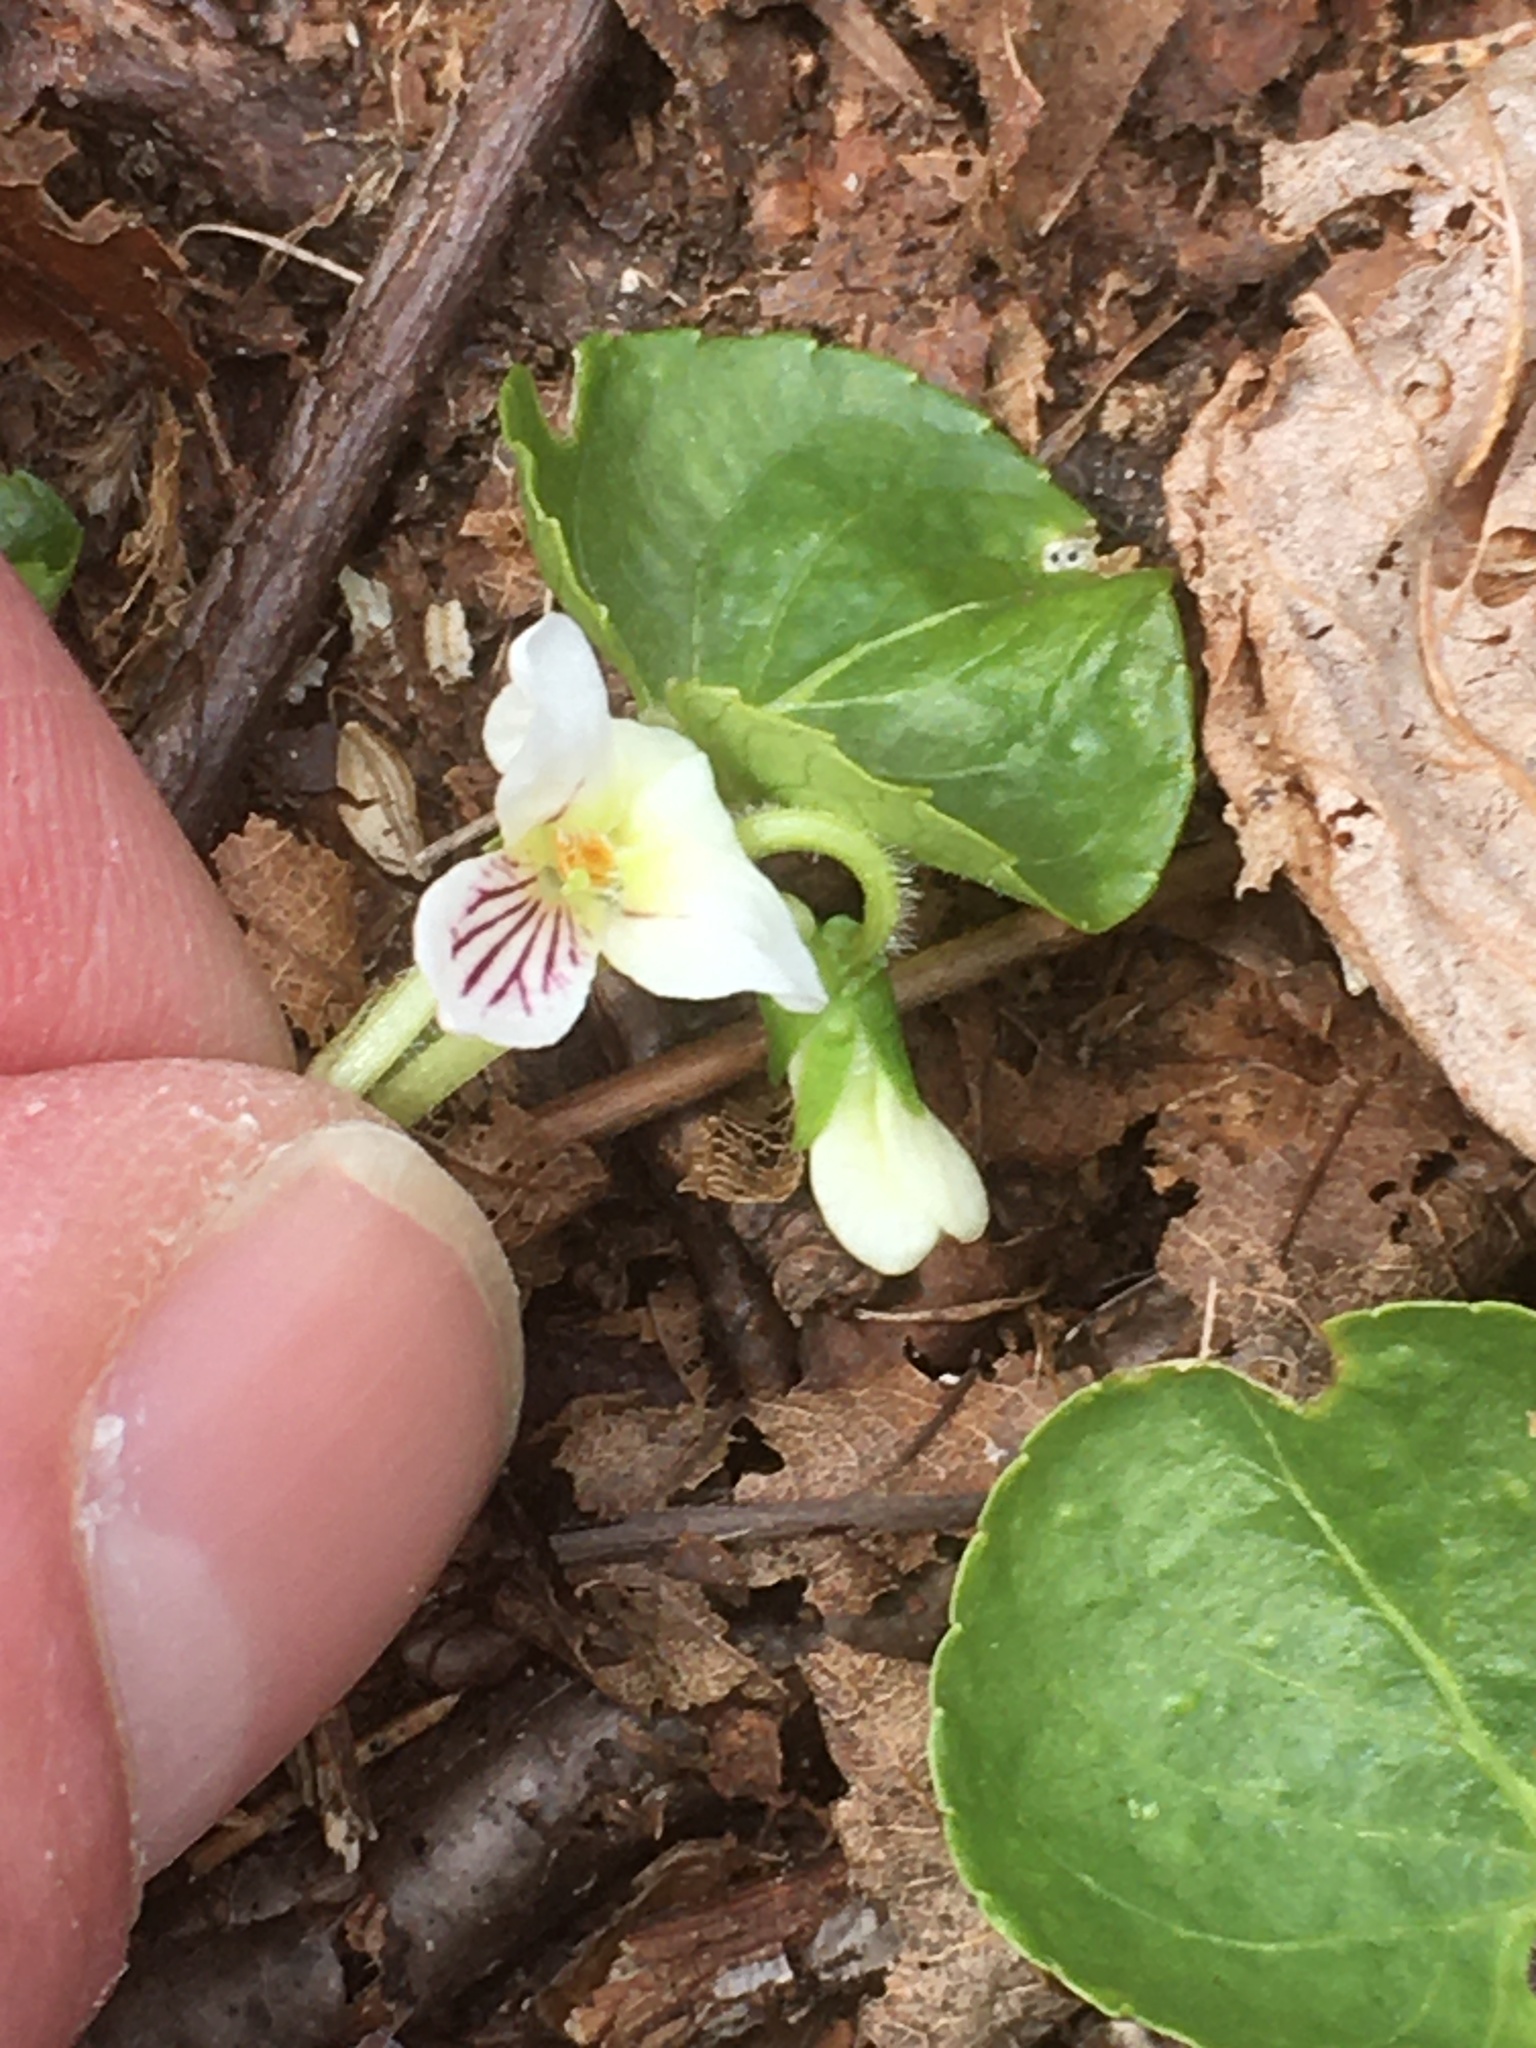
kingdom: Plantae
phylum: Tracheophyta
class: Magnoliopsida
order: Malpighiales
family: Violaceae
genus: Viola
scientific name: Viola renifolia
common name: Kidney-leaf violet
